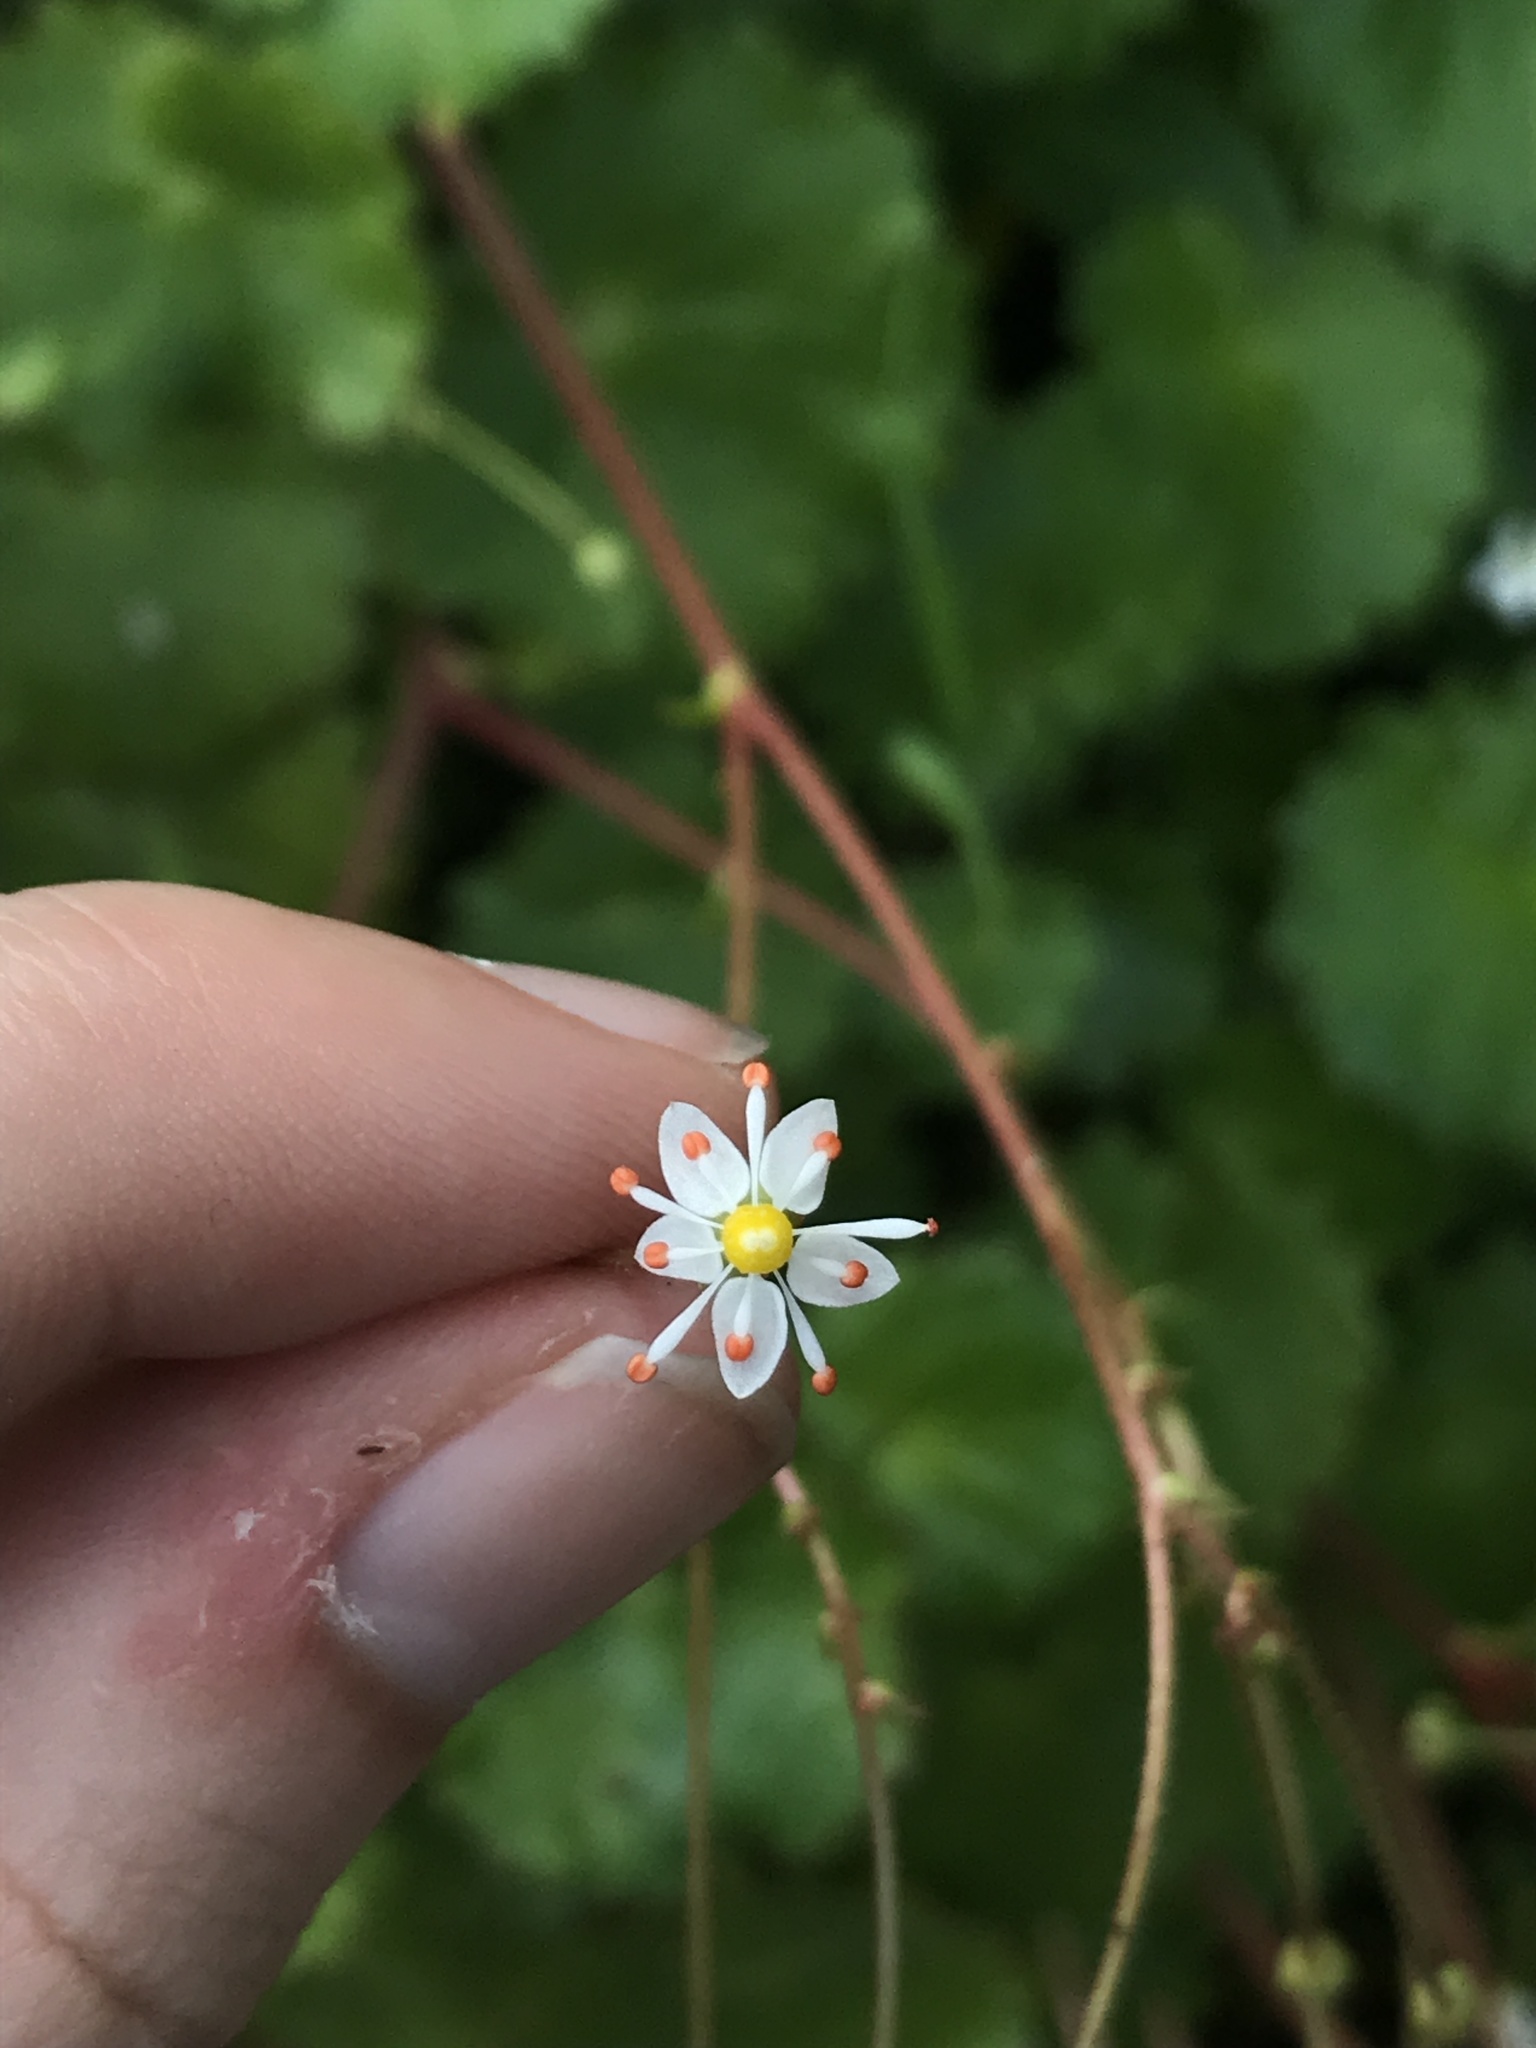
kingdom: Plantae
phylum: Tracheophyta
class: Magnoliopsida
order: Saxifragales
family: Saxifragaceae
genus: Micranthes
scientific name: Micranthes mertensiana
